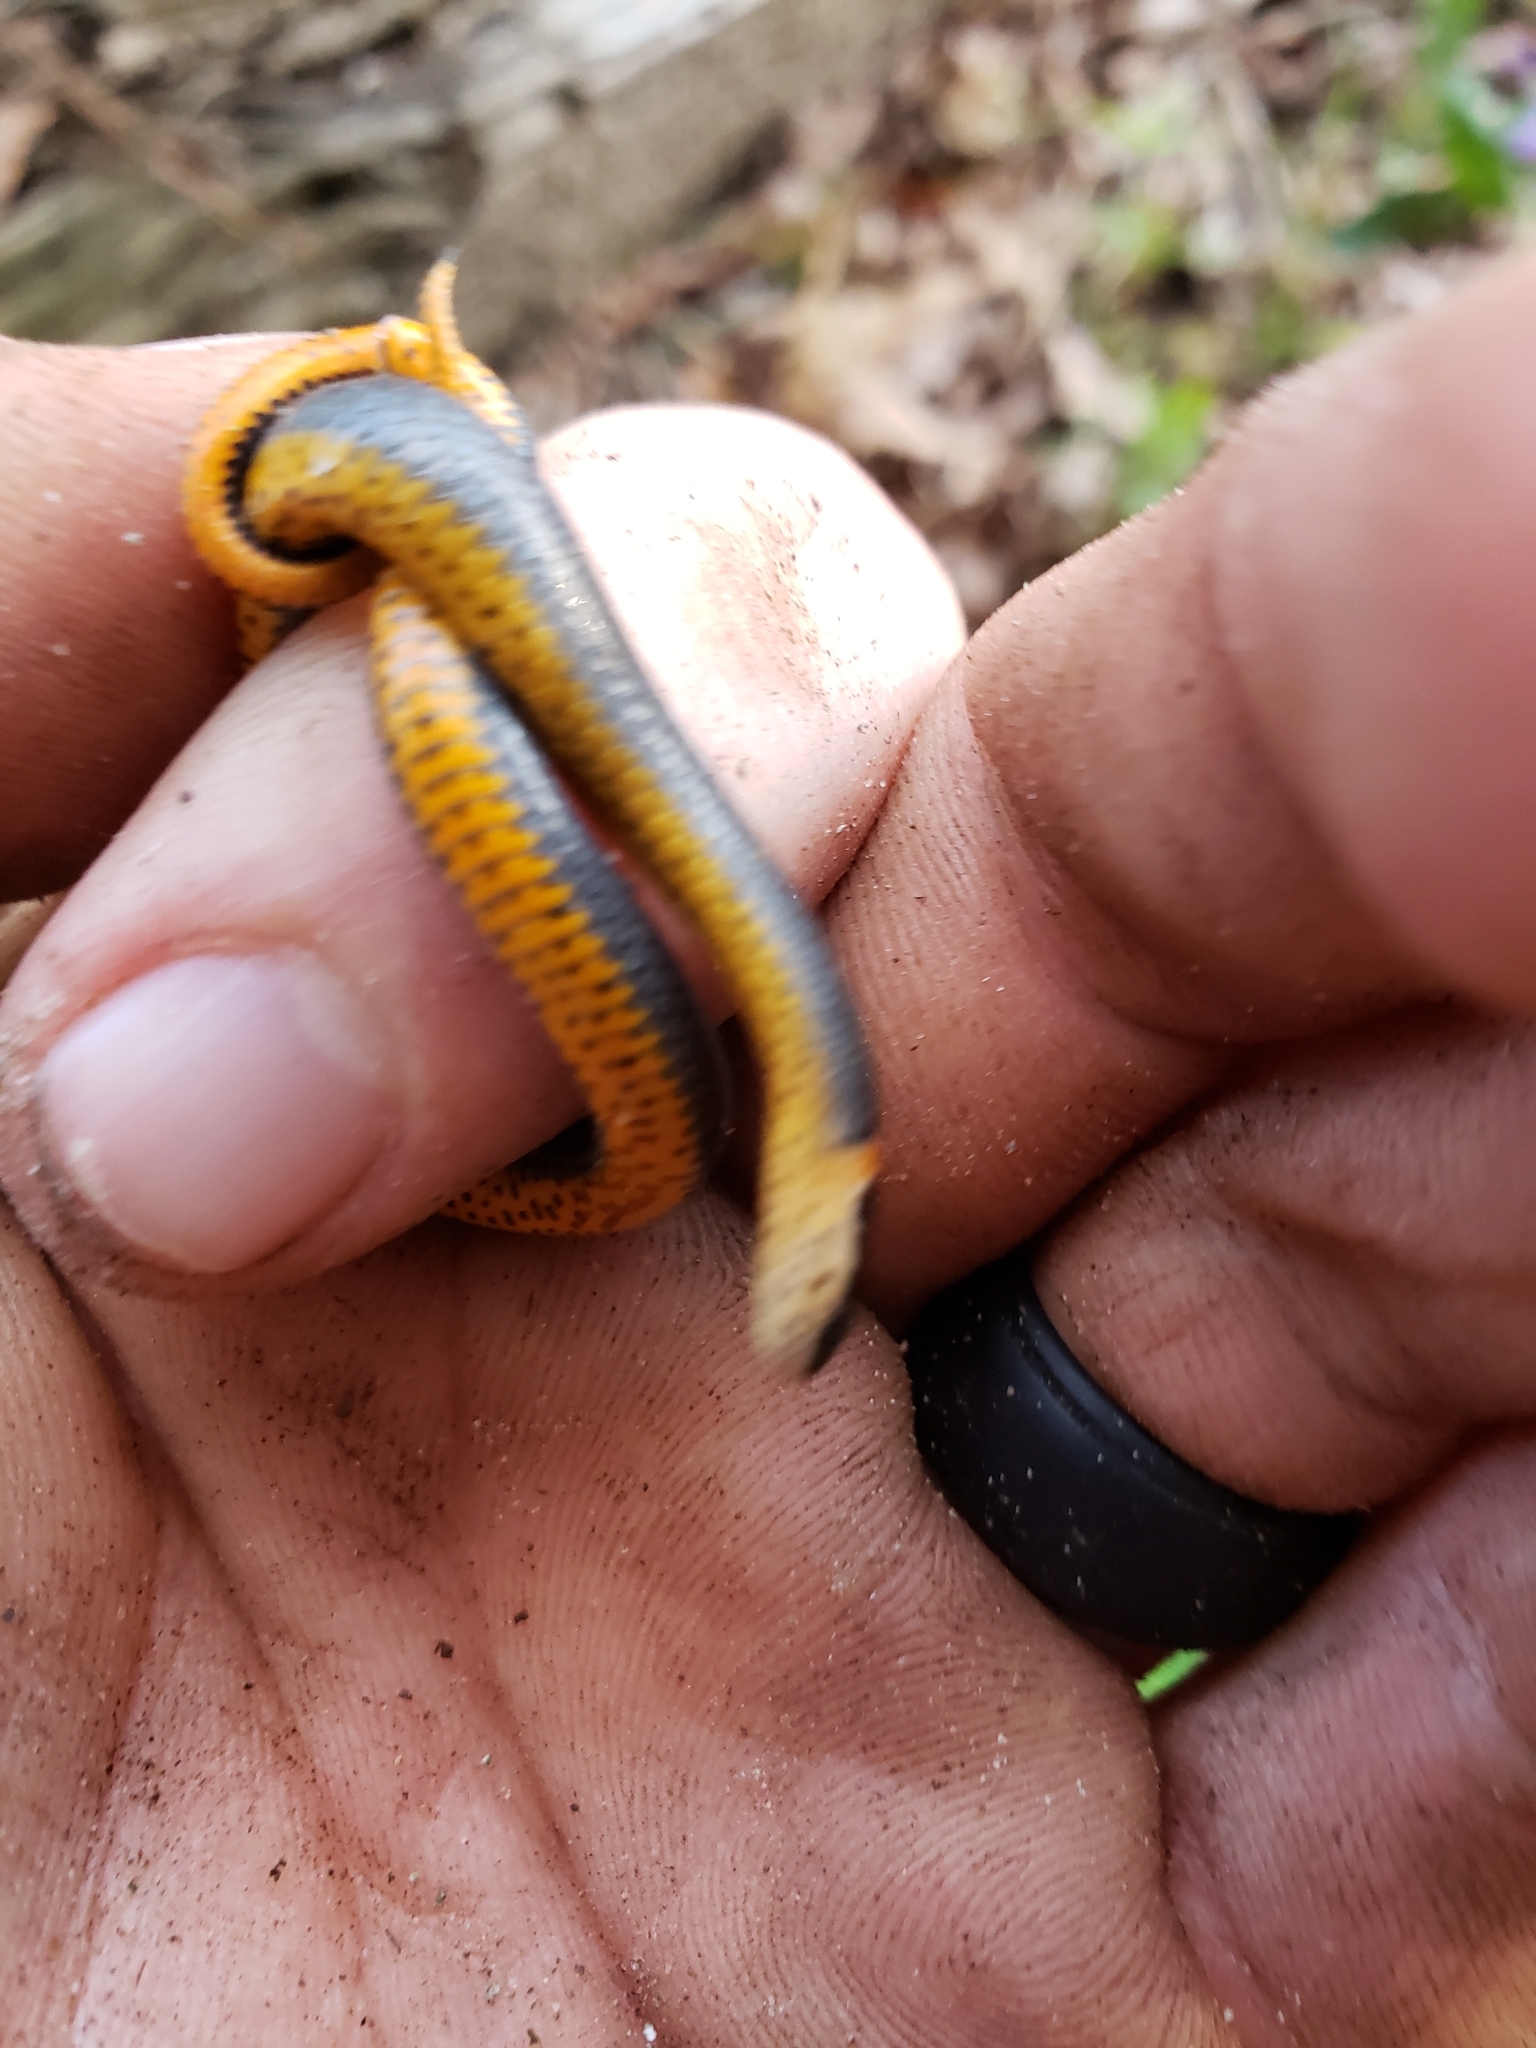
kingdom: Animalia
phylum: Chordata
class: Squamata
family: Colubridae
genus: Diadophis
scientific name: Diadophis punctatus
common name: Ringneck snake
